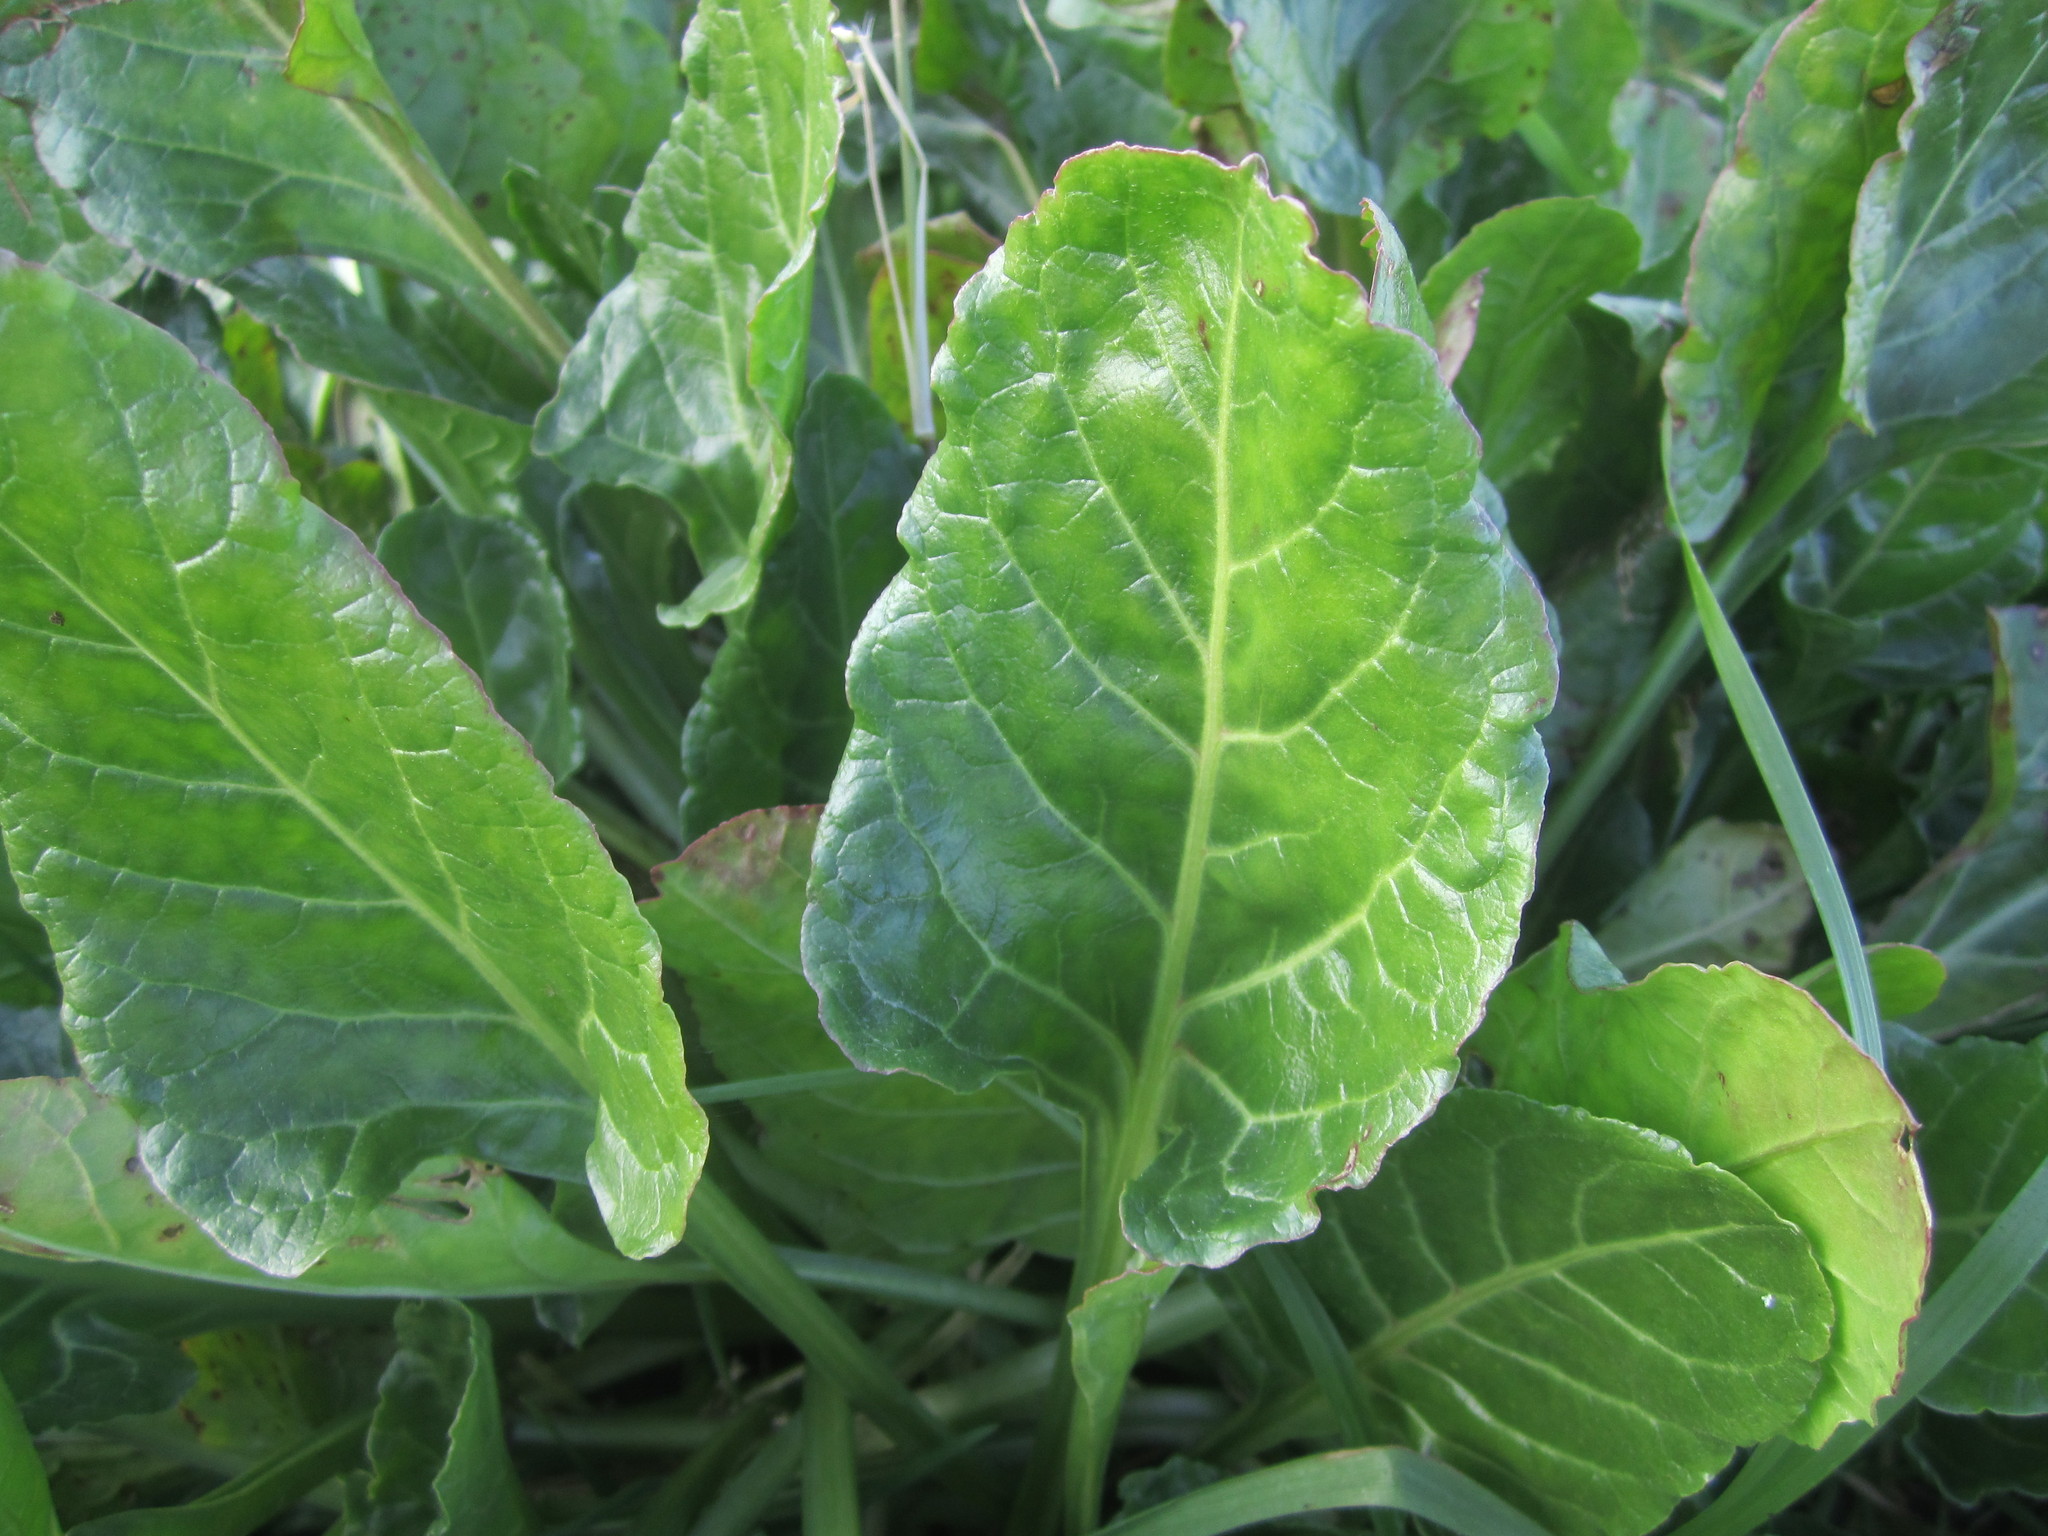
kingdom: Plantae
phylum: Tracheophyta
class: Magnoliopsida
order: Caryophyllales
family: Amaranthaceae
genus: Beta
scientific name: Beta vulgaris
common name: Beet
